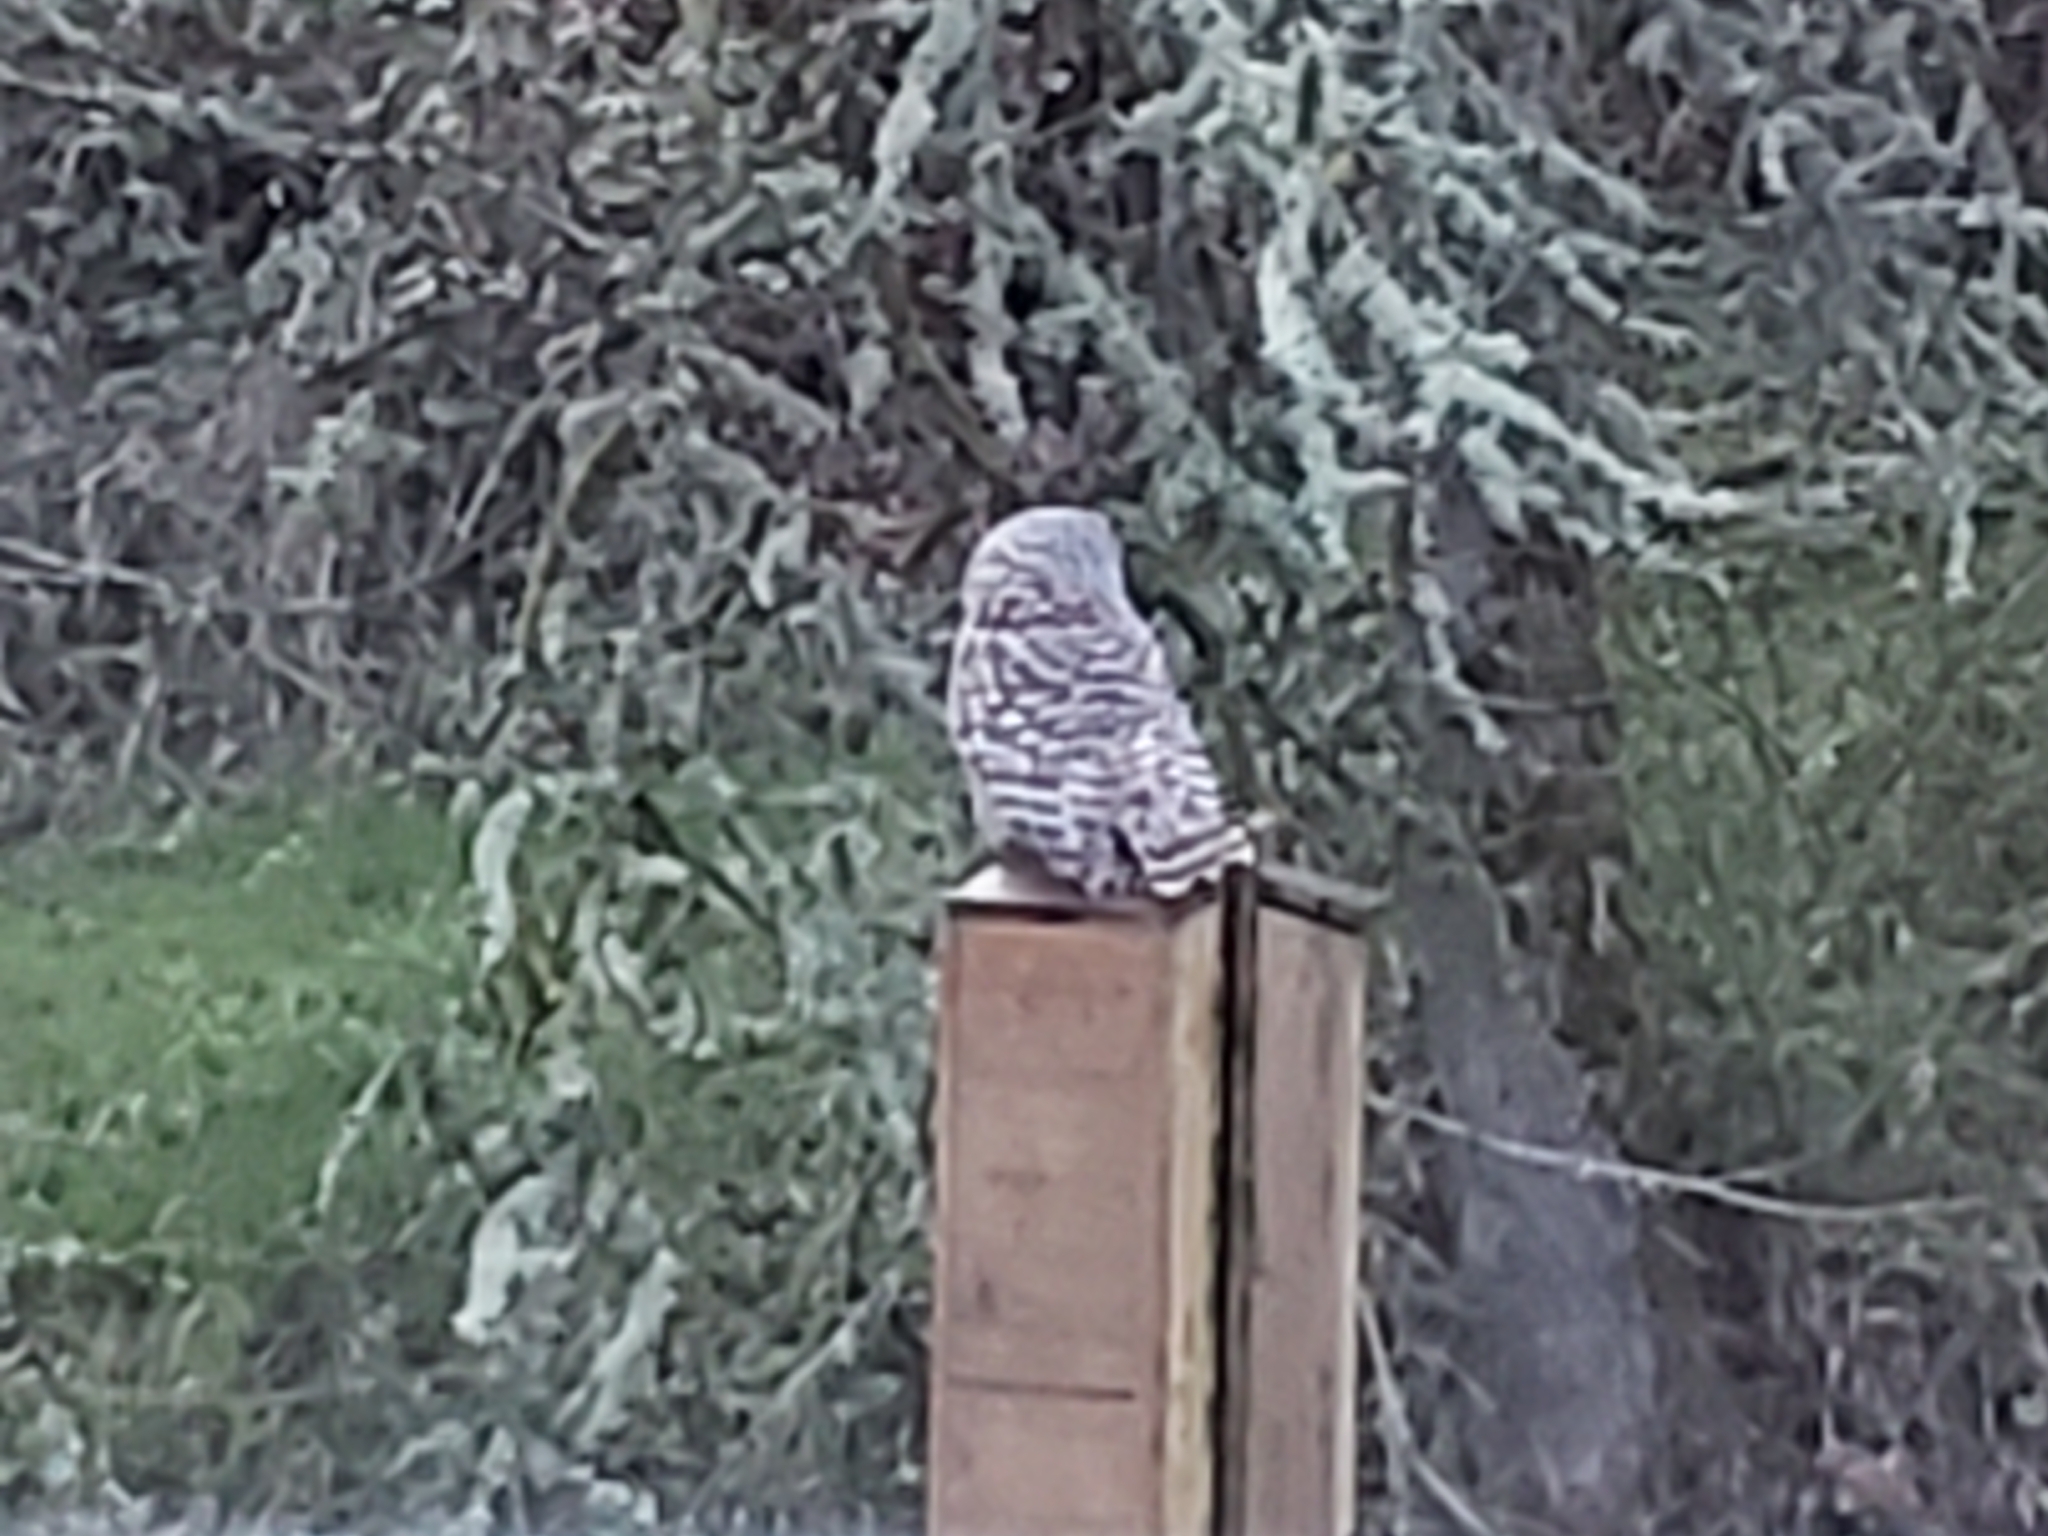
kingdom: Animalia
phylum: Chordata
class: Aves
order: Strigiformes
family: Strigidae
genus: Strix
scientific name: Strix varia
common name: Barred owl
